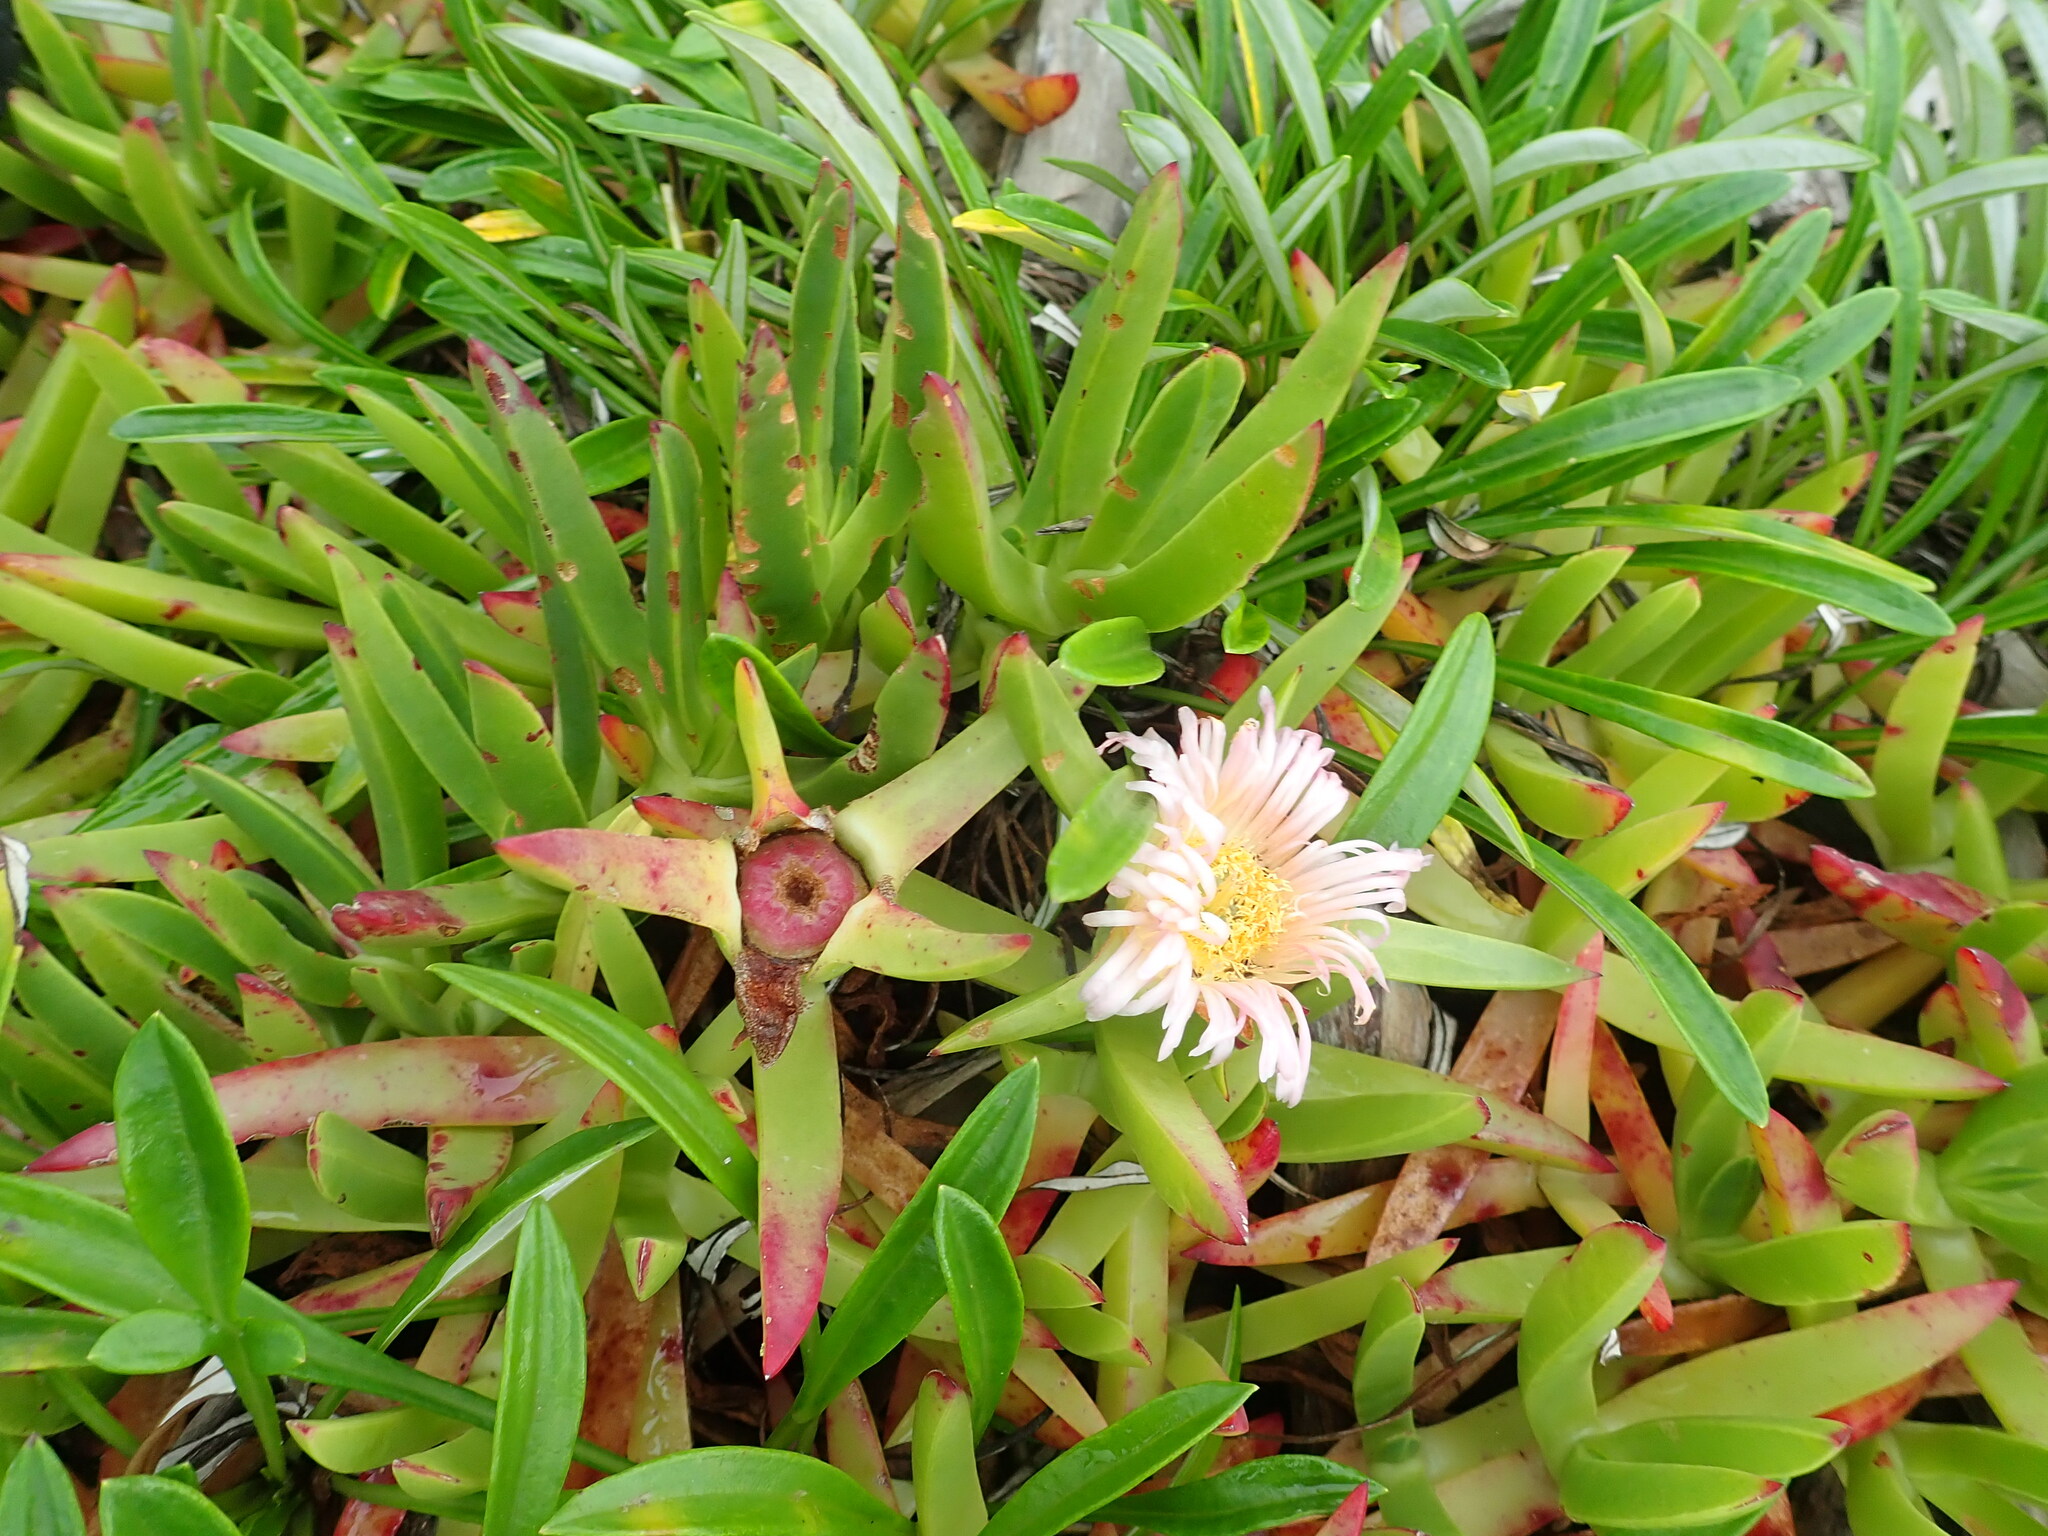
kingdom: Plantae
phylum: Tracheophyta
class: Magnoliopsida
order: Caryophyllales
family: Aizoaceae
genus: Carpobrotus
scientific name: Carpobrotus edulis
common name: Hottentot-fig
